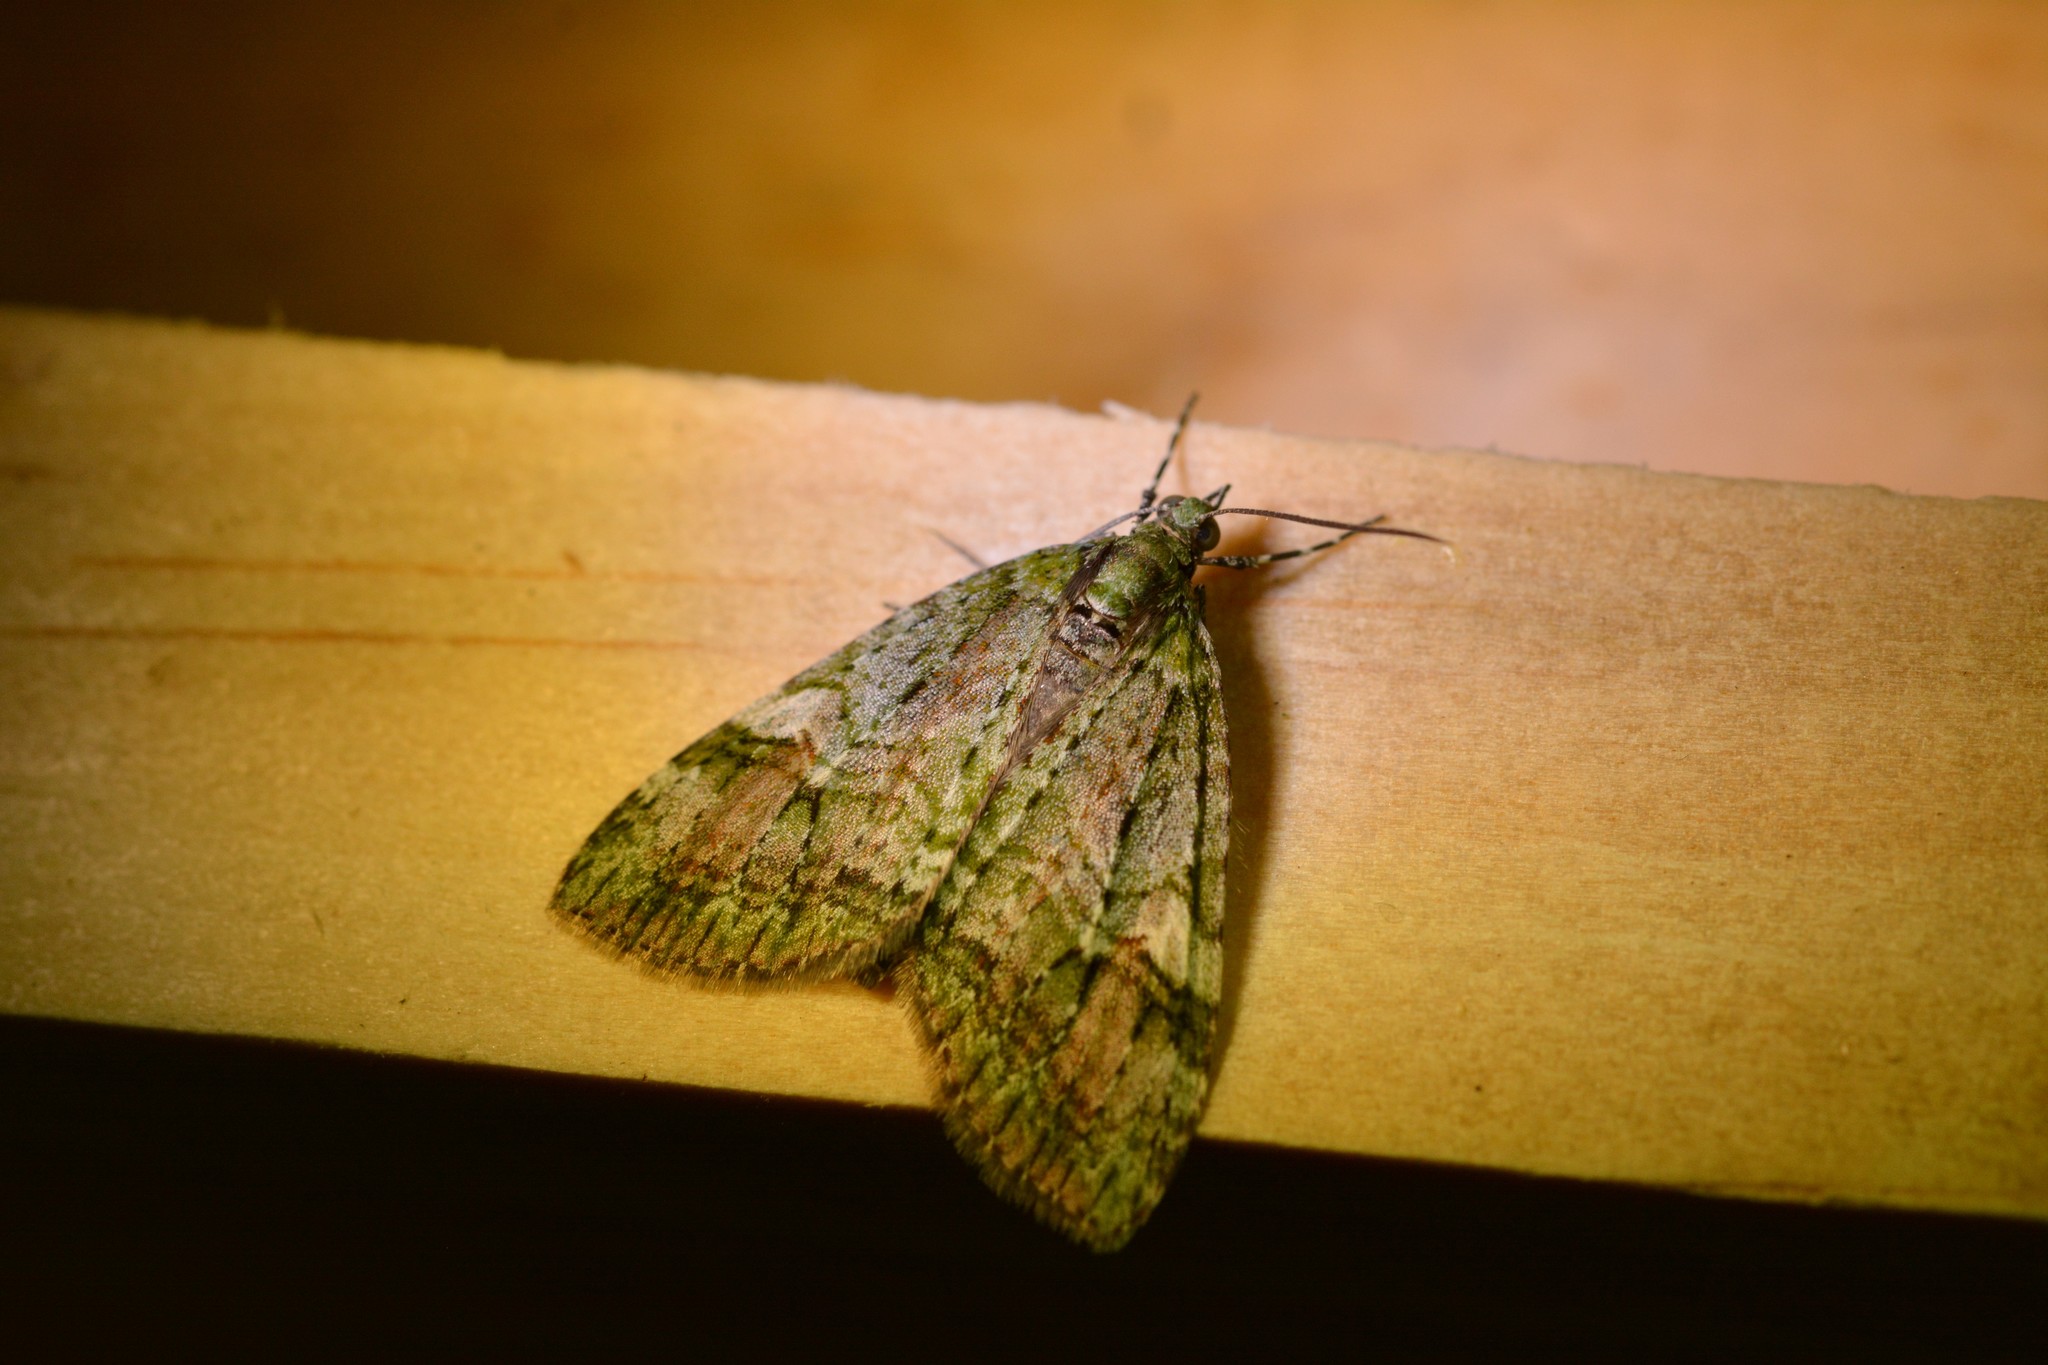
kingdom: Animalia
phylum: Arthropoda
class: Insecta
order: Lepidoptera
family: Geometridae
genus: Tatosoma
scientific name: Tatosoma topea
